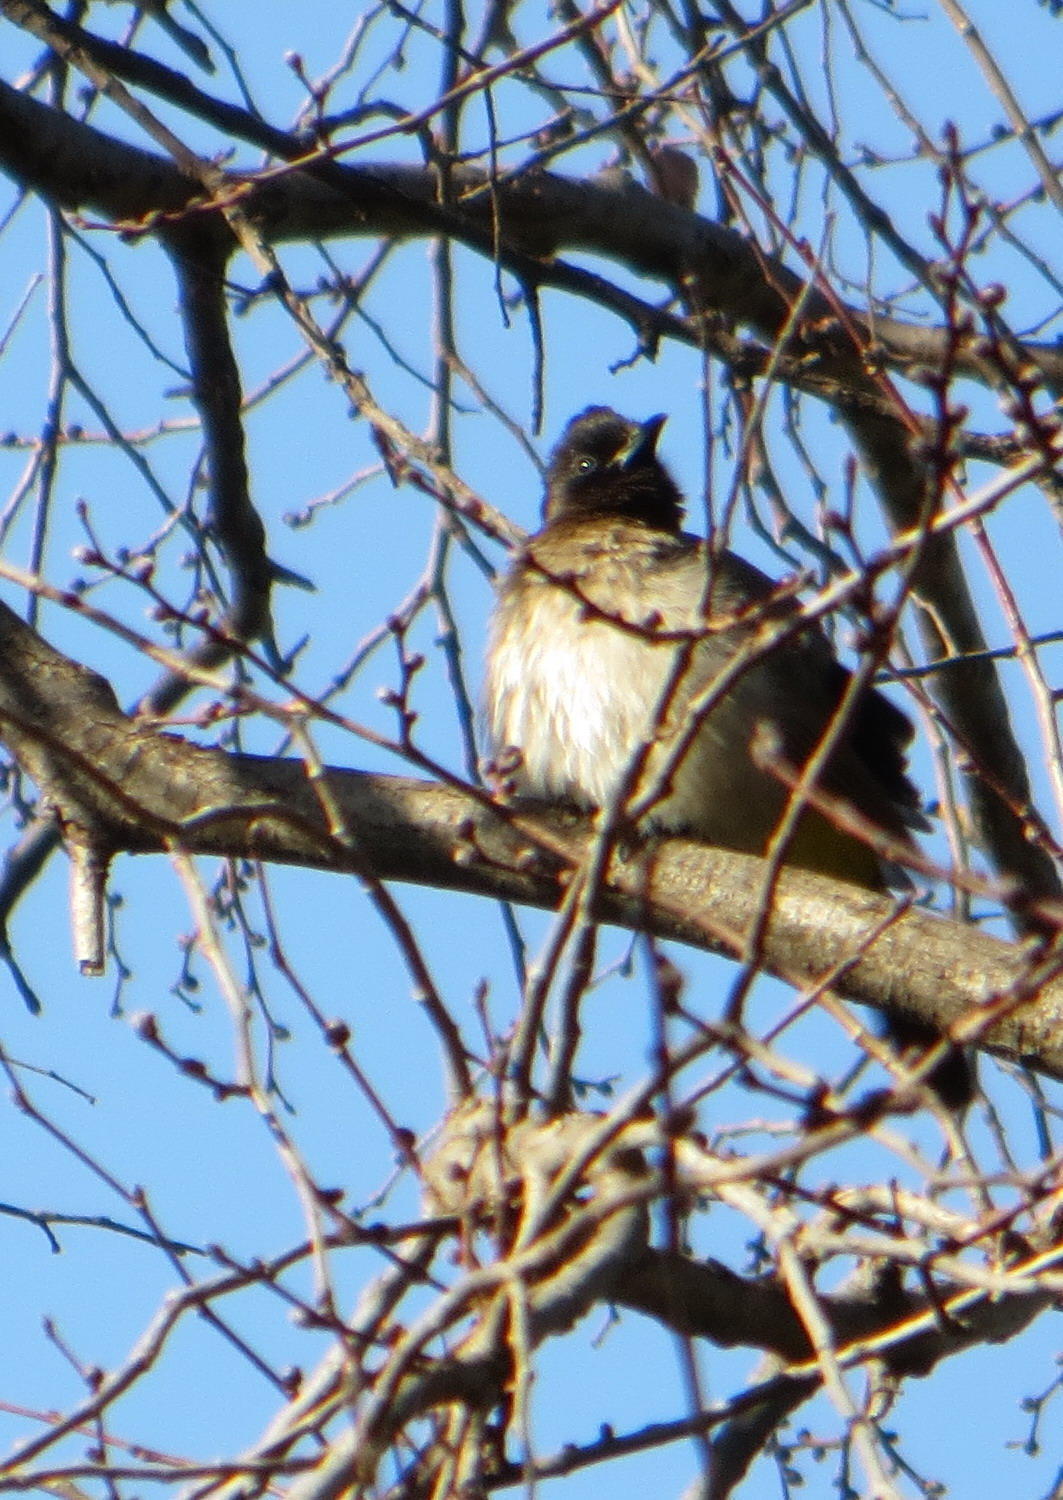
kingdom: Animalia
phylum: Chordata
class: Aves
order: Passeriformes
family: Pycnonotidae
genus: Pycnonotus
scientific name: Pycnonotus barbatus
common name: Common bulbul
